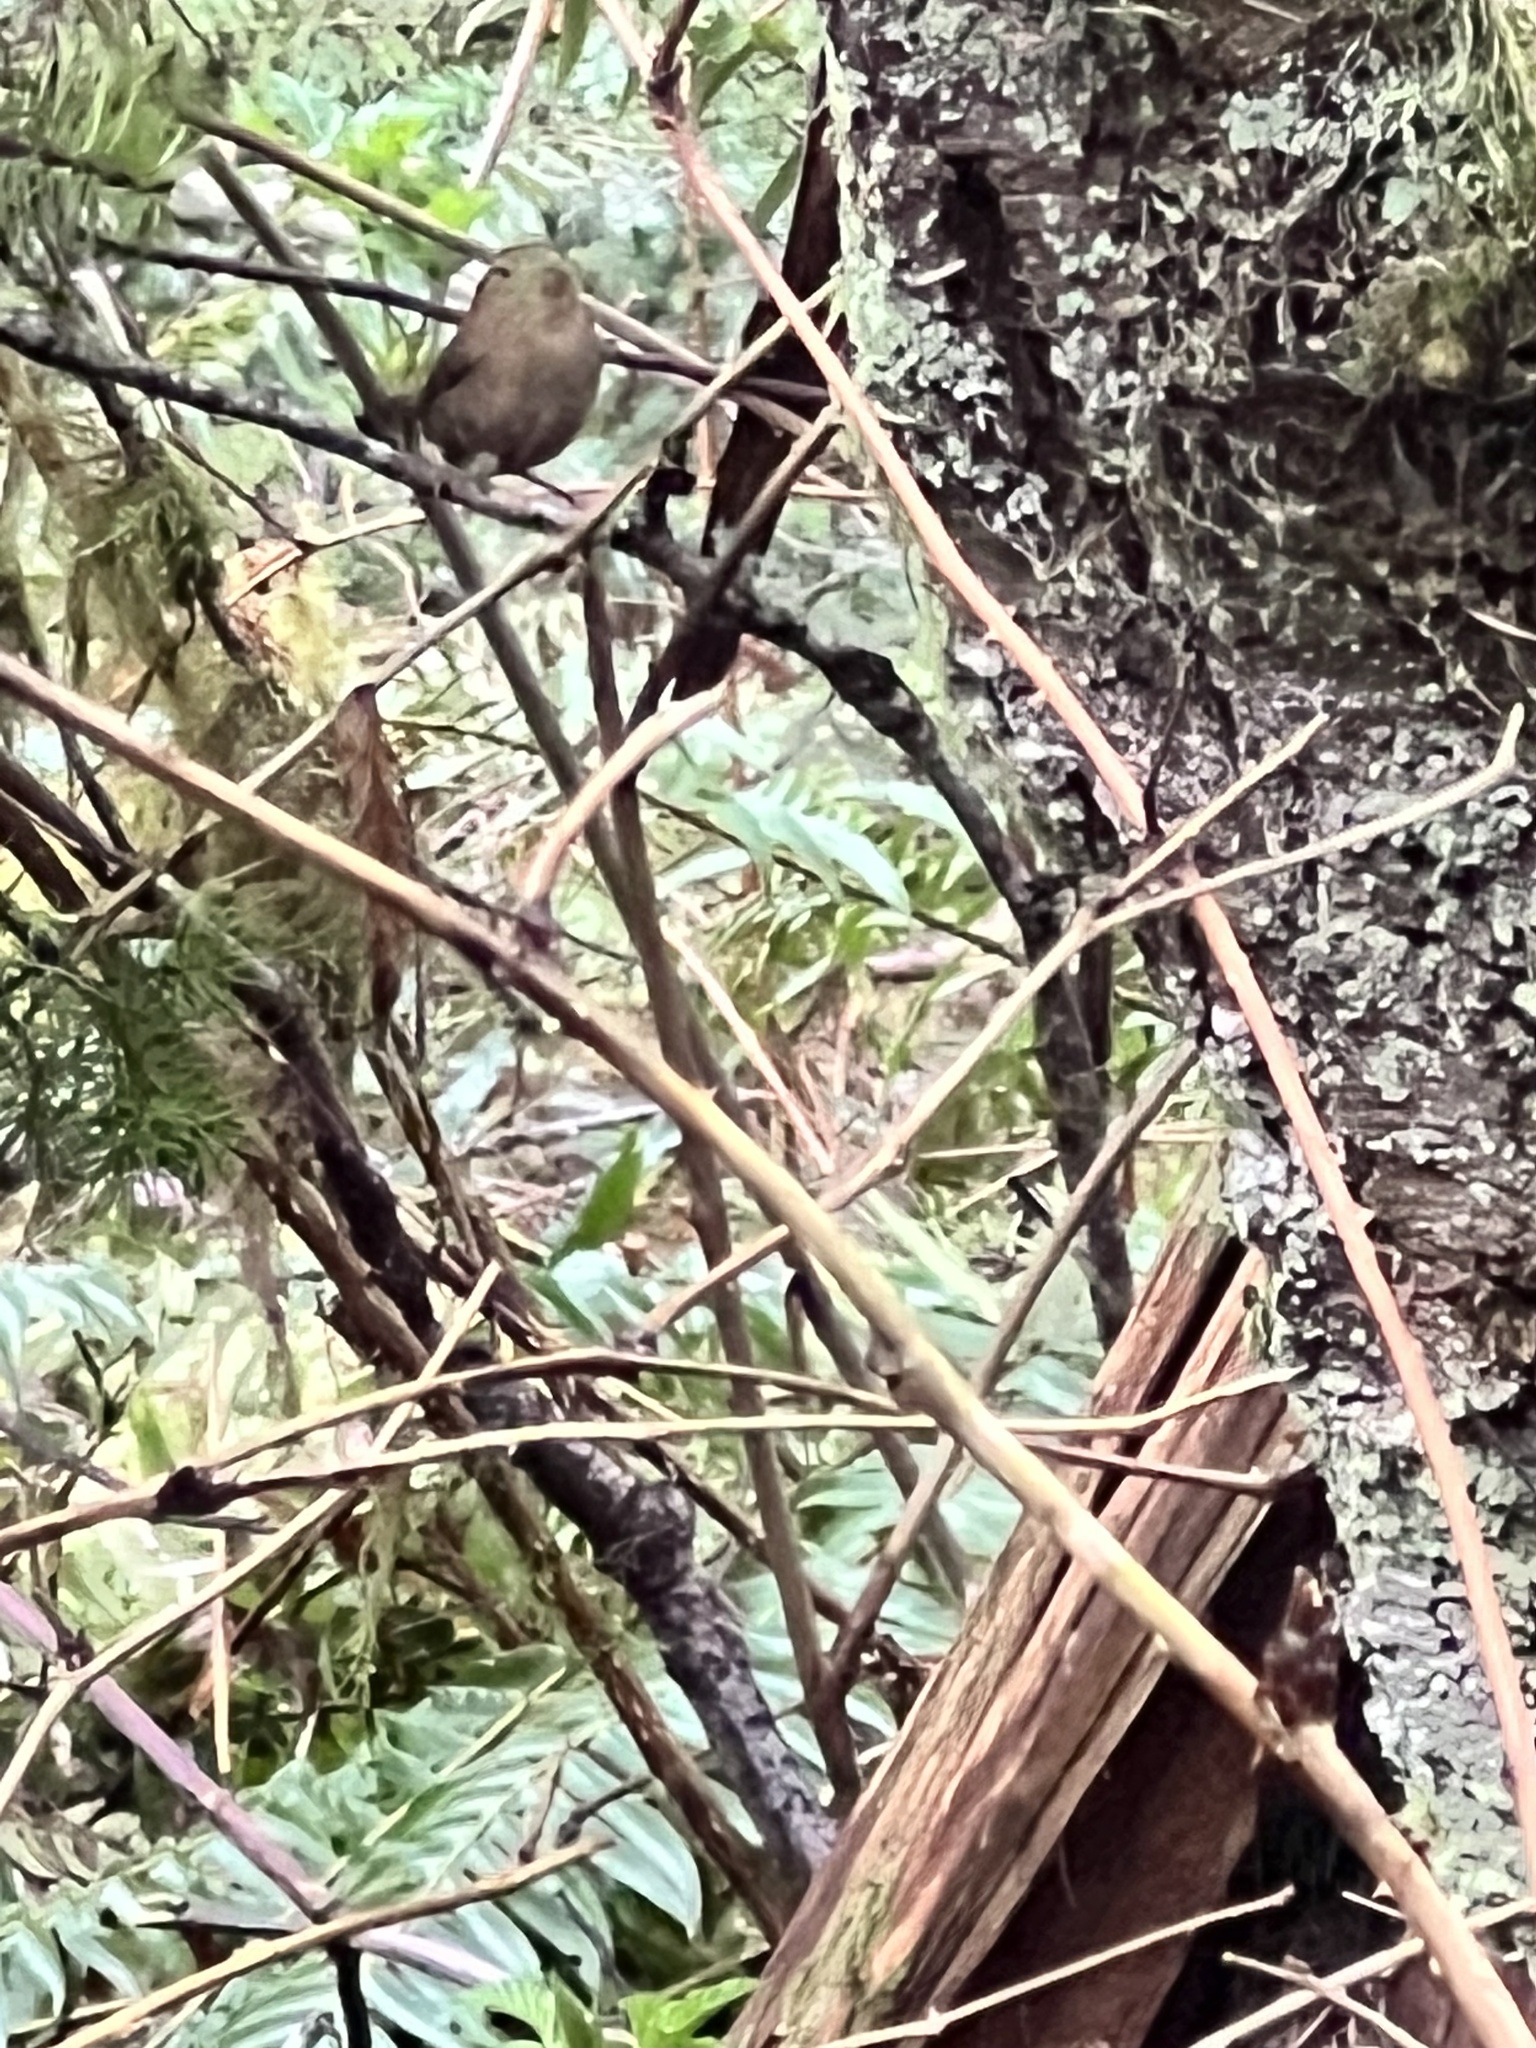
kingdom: Animalia
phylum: Chordata
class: Aves
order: Passeriformes
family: Troglodytidae
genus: Troglodytes
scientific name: Troglodytes pacificus
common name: Pacific wren
